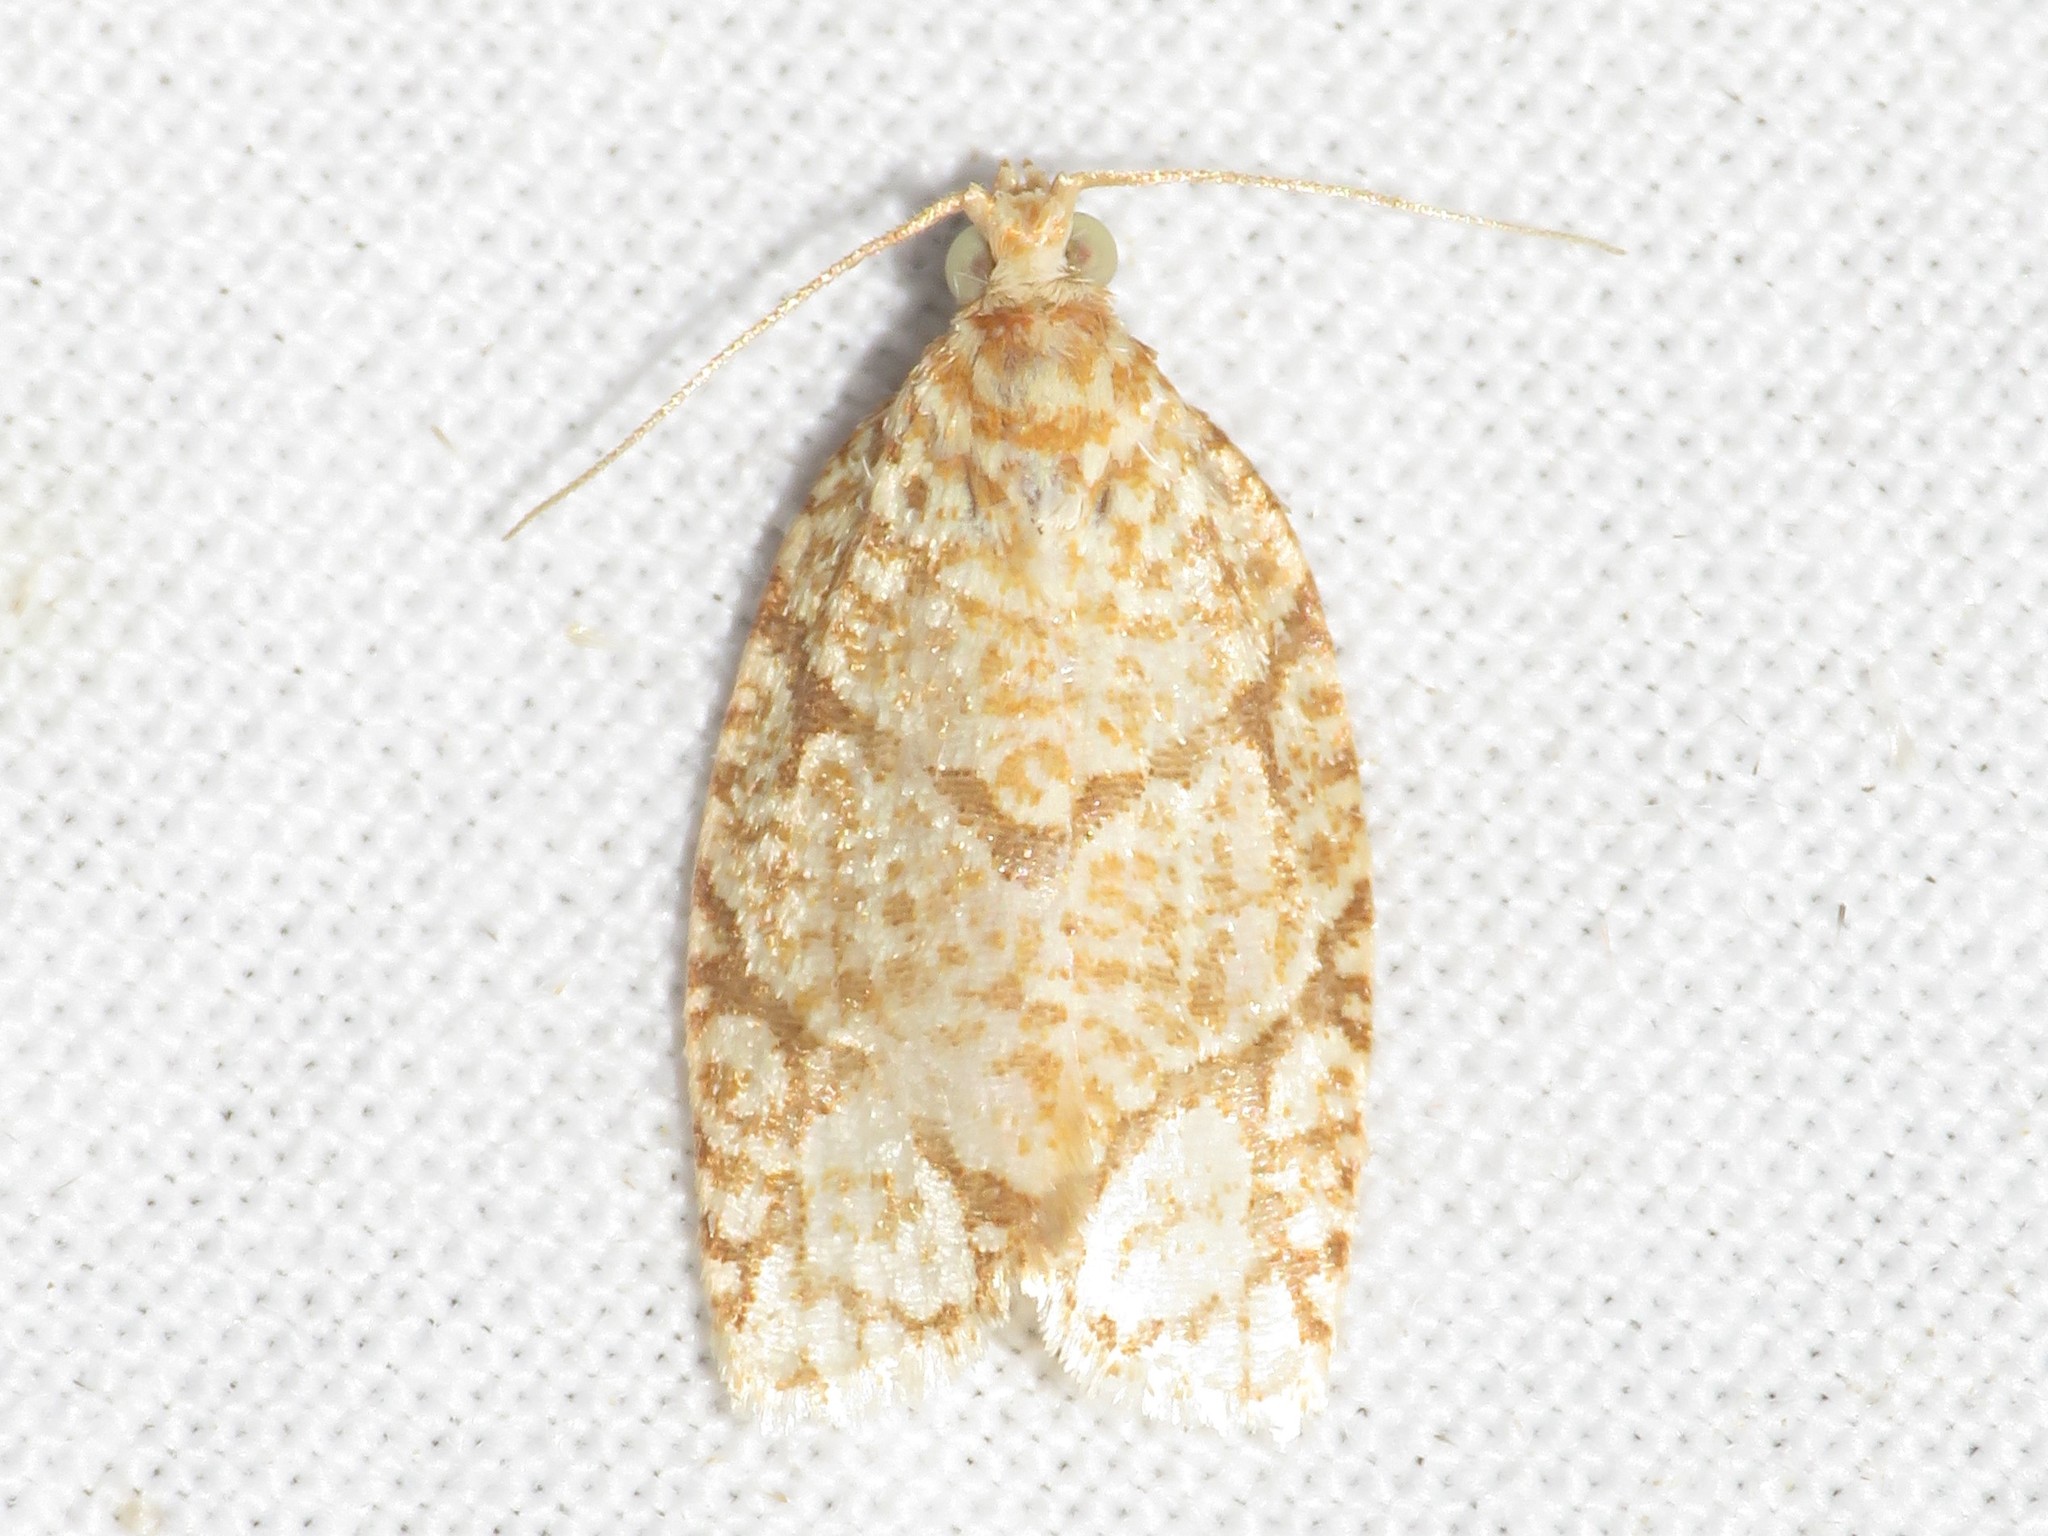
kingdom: Animalia
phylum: Arthropoda
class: Insecta
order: Lepidoptera
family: Tortricidae
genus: Argyrotaenia
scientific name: Argyrotaenia quercifoliana
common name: Yellow-winged oak leafroller moth
